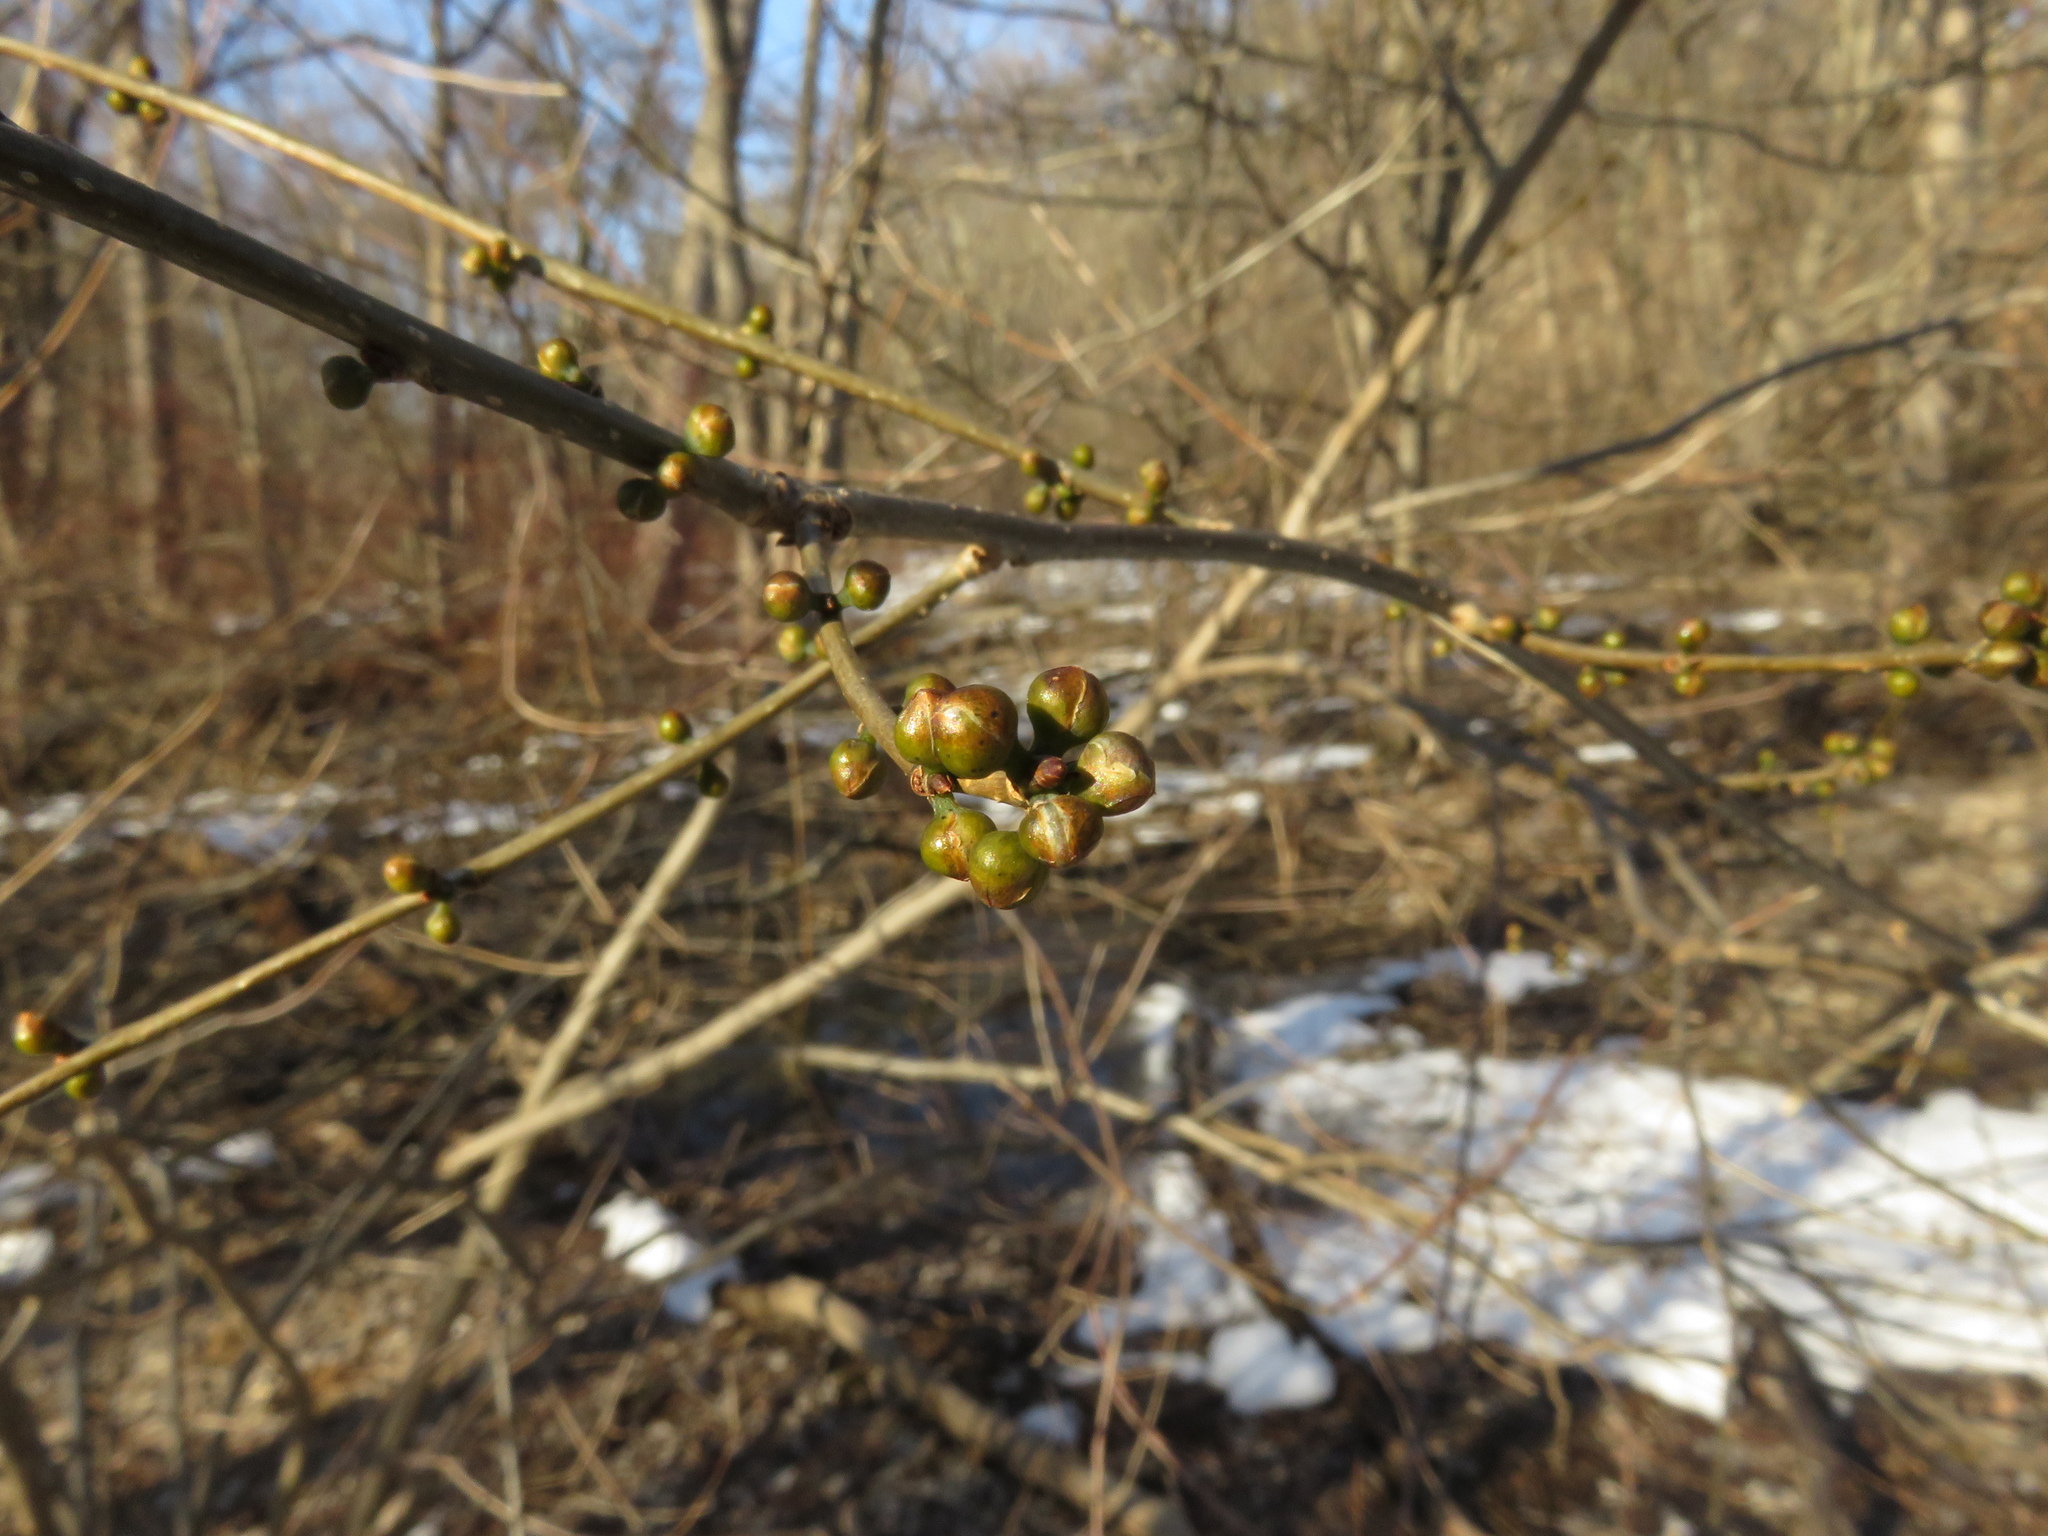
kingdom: Plantae
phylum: Tracheophyta
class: Magnoliopsida
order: Laurales
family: Lauraceae
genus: Lindera
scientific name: Lindera benzoin
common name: Spicebush
